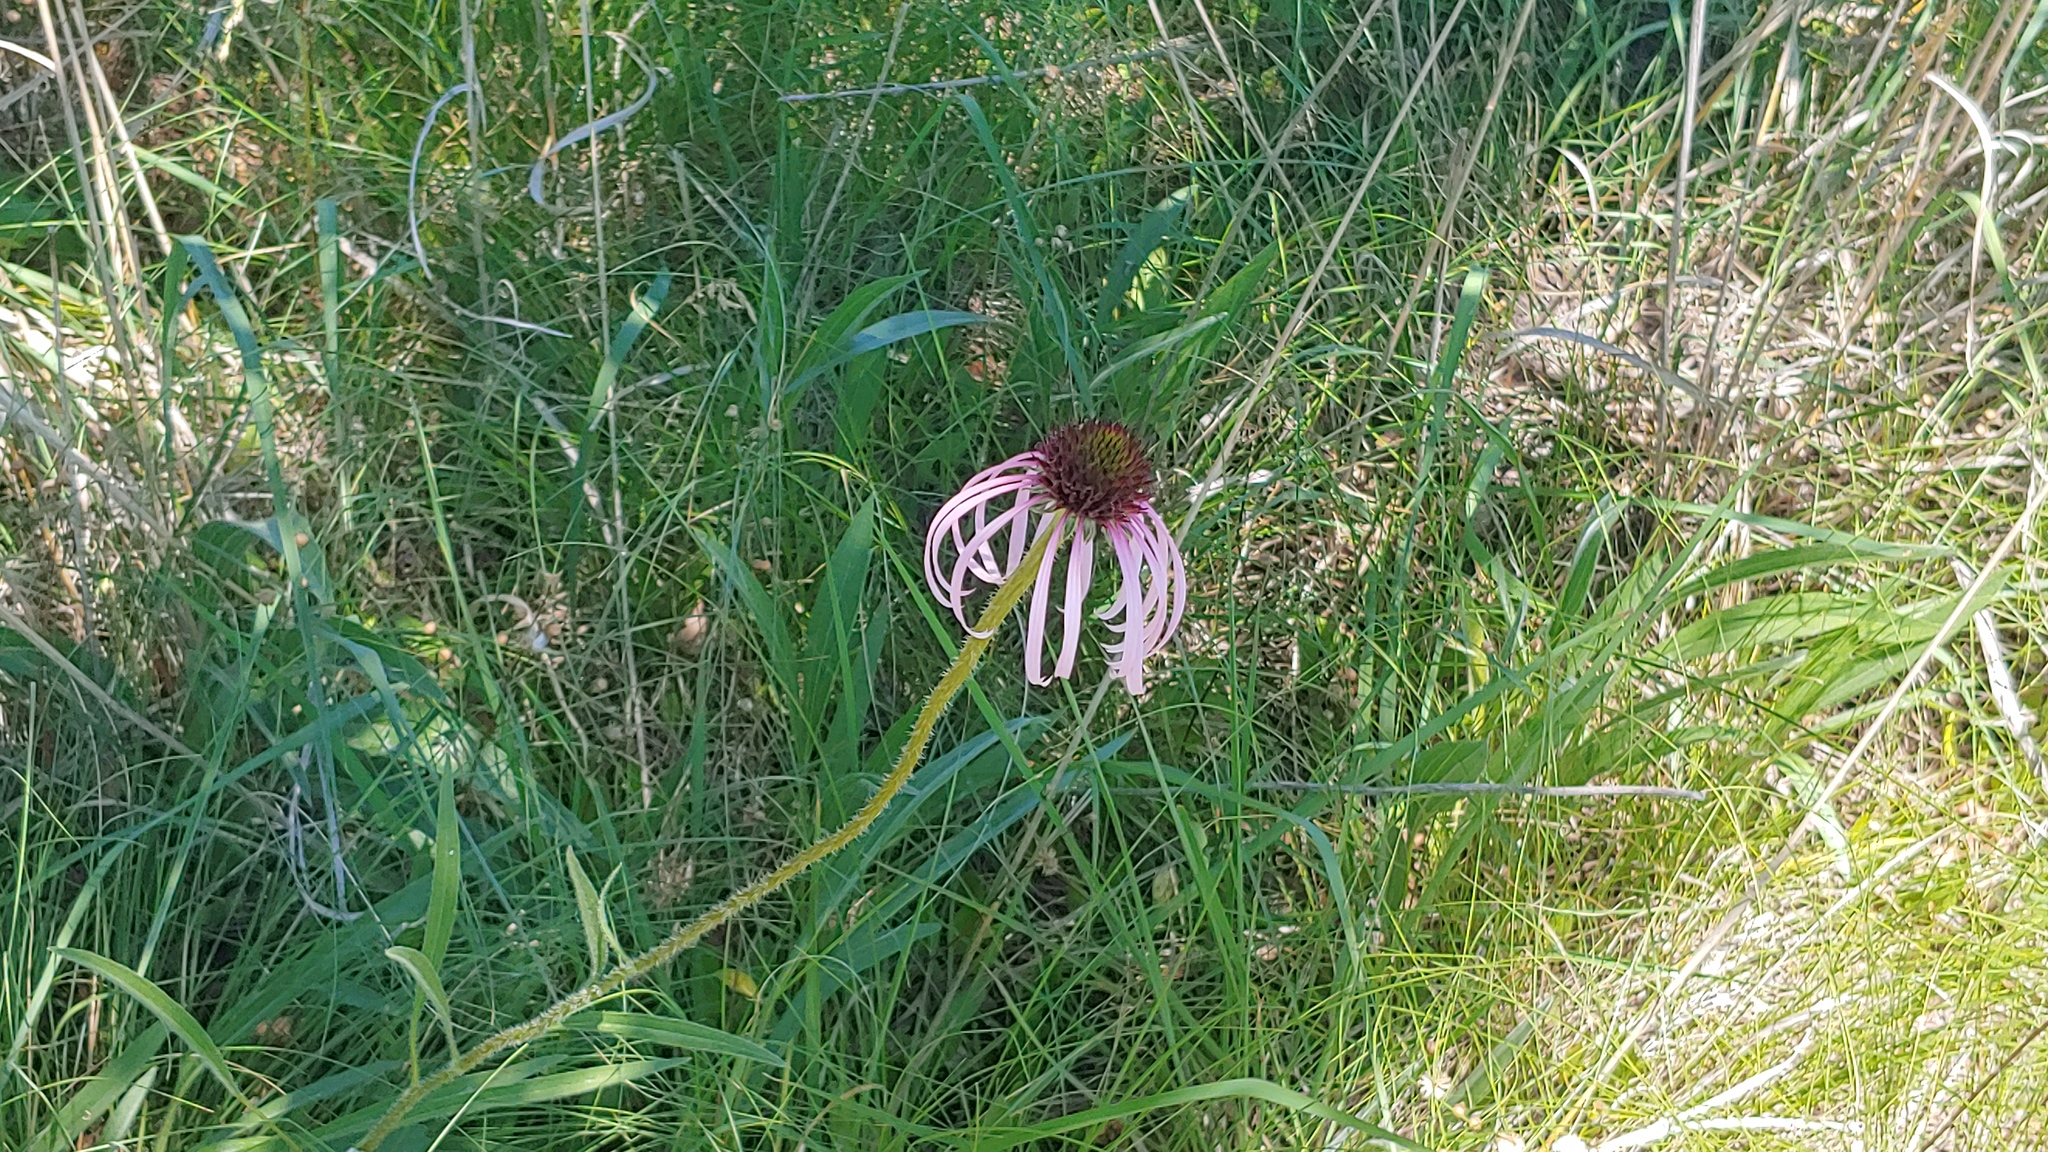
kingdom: Plantae
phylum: Tracheophyta
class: Magnoliopsida
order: Asterales
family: Asteraceae
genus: Echinacea
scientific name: Echinacea pallida
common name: Pale echinacea
